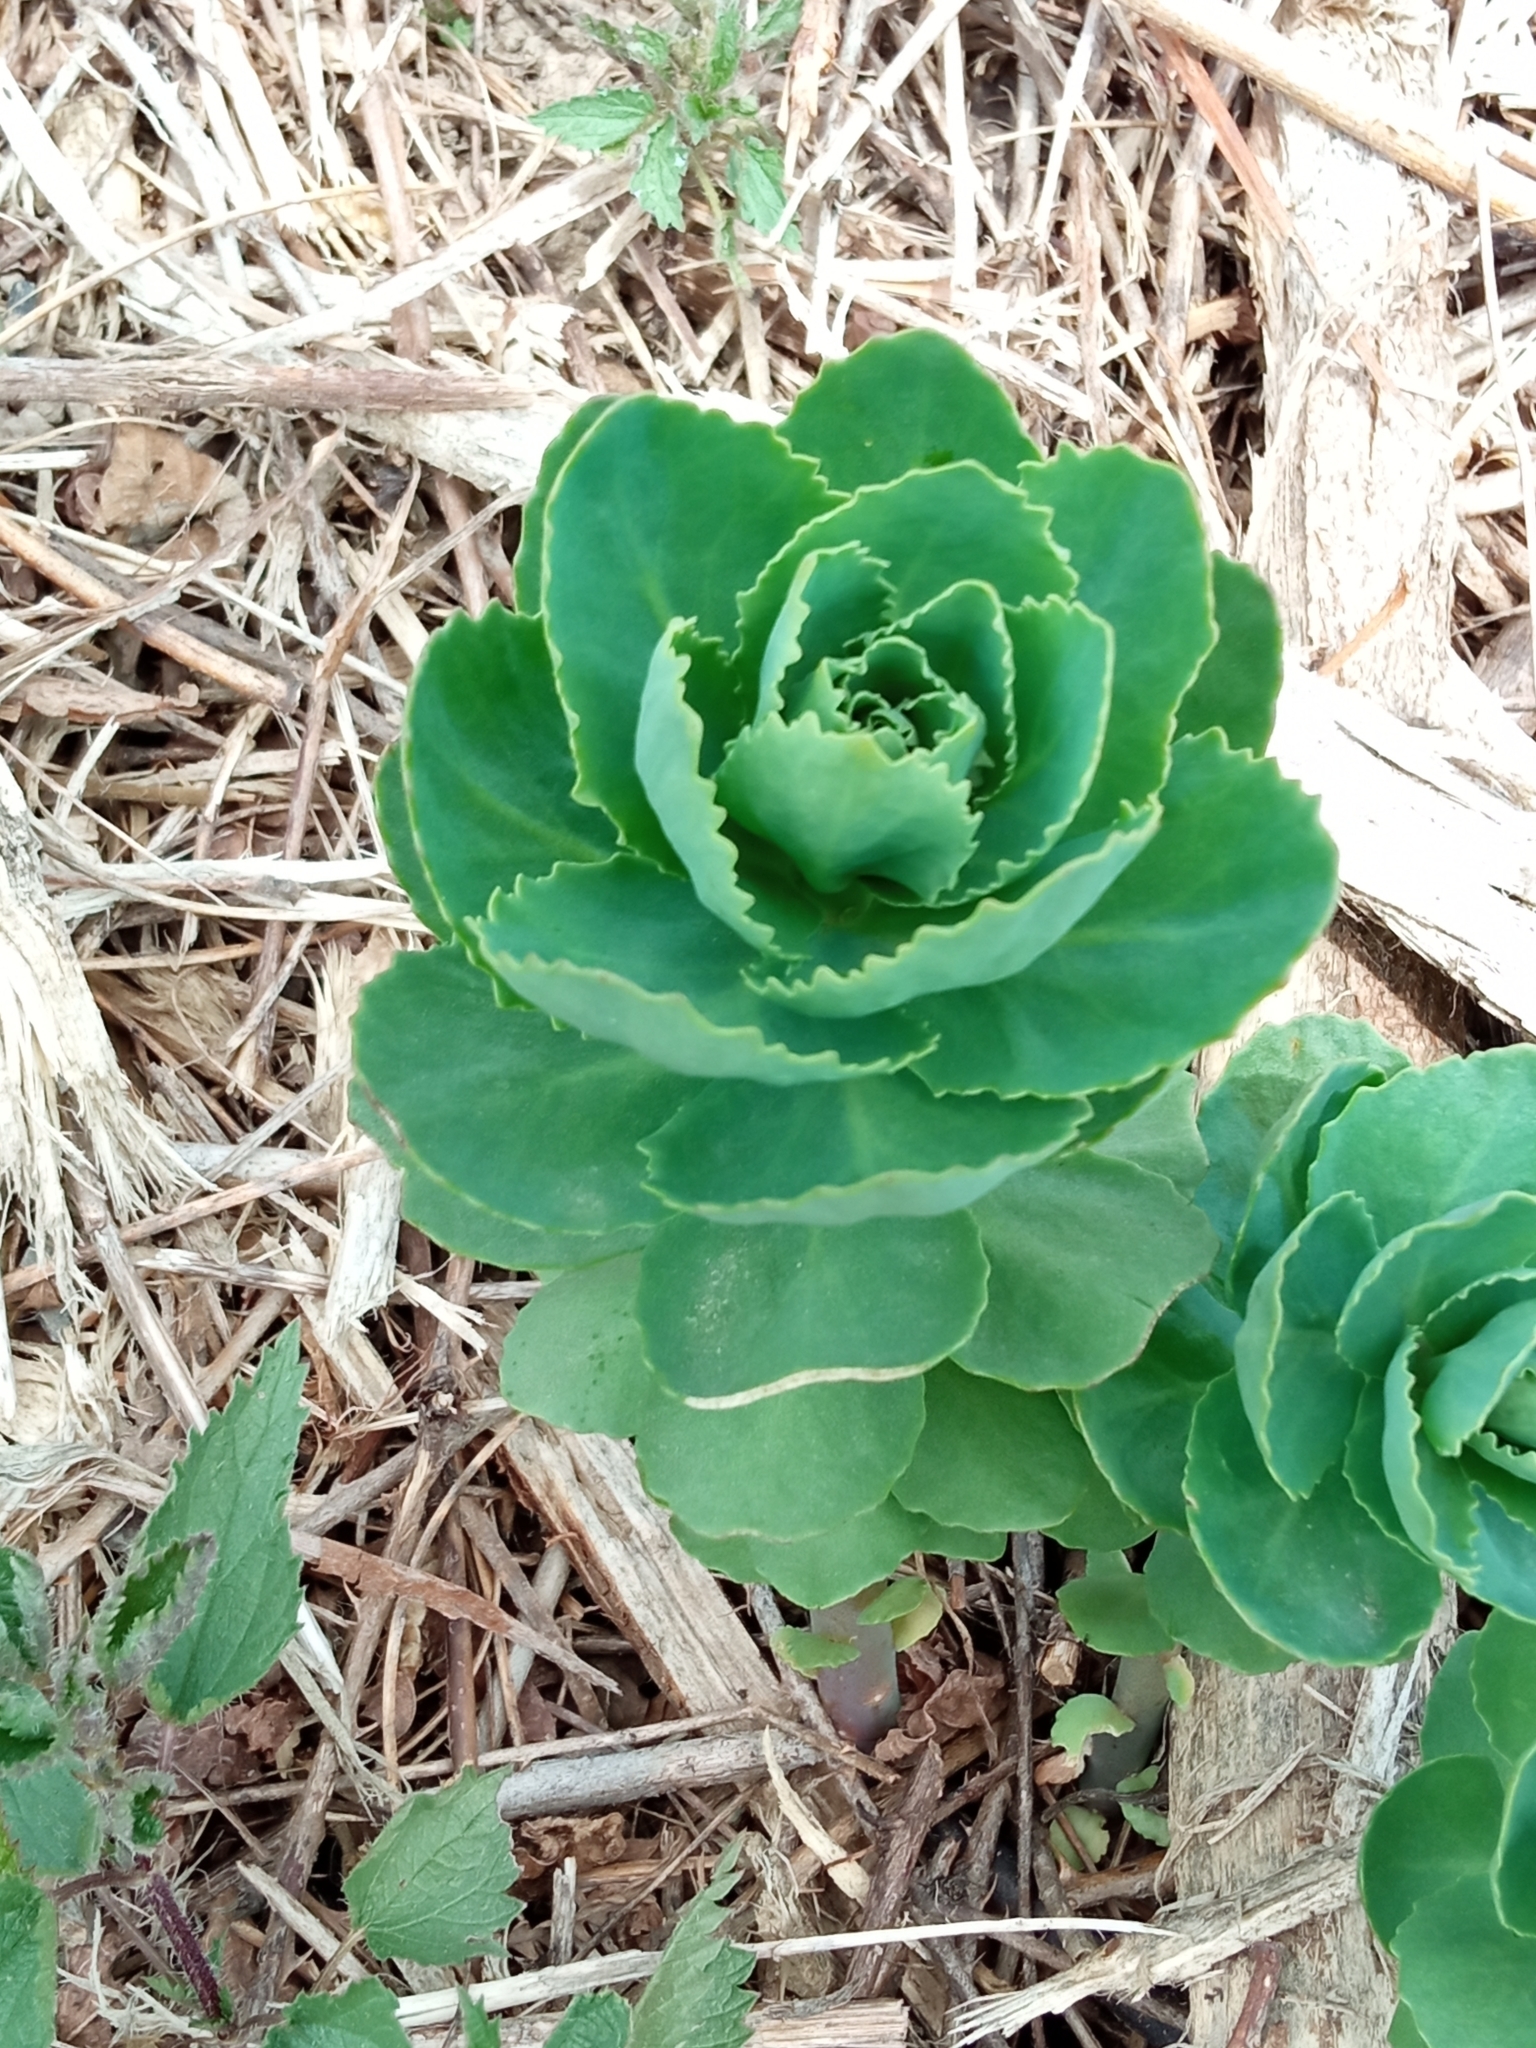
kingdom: Plantae
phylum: Tracheophyta
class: Magnoliopsida
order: Saxifragales
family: Crassulaceae
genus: Hylotelephium
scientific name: Hylotelephium telephium
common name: Live-forever
